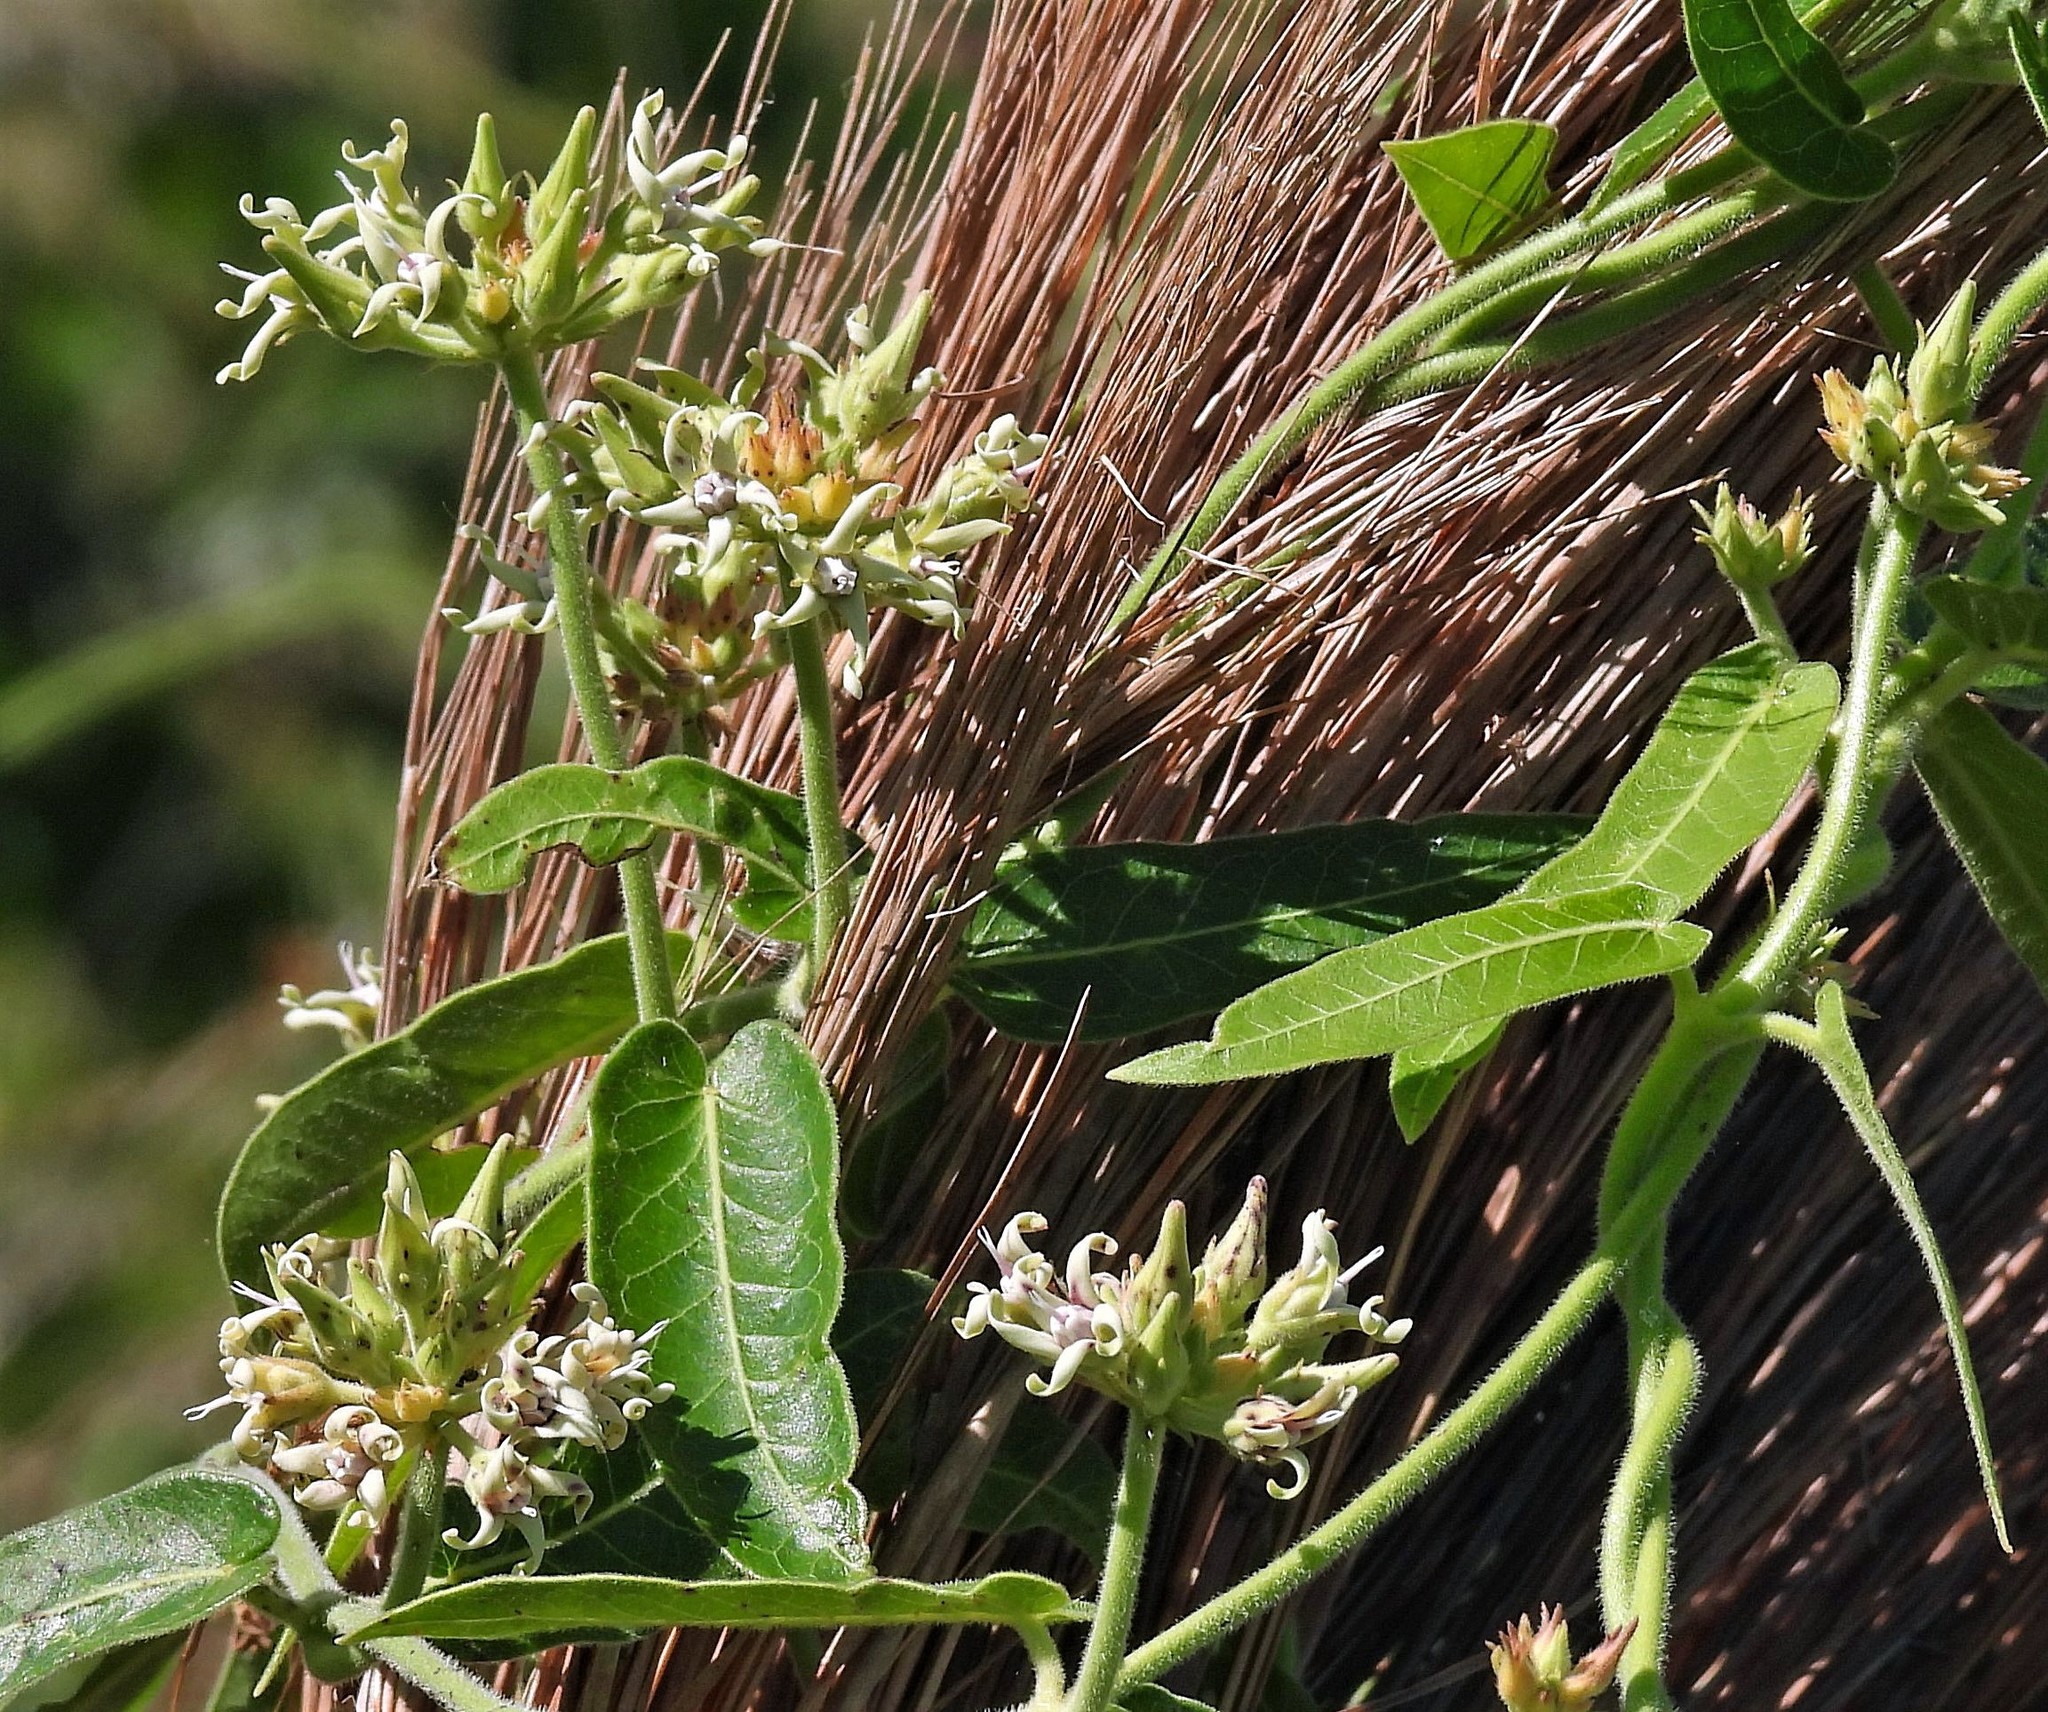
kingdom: Plantae
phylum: Tracheophyta
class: Magnoliopsida
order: Gentianales
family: Apocynaceae
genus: Oxypetalum
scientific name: Oxypetalum macrolepis
